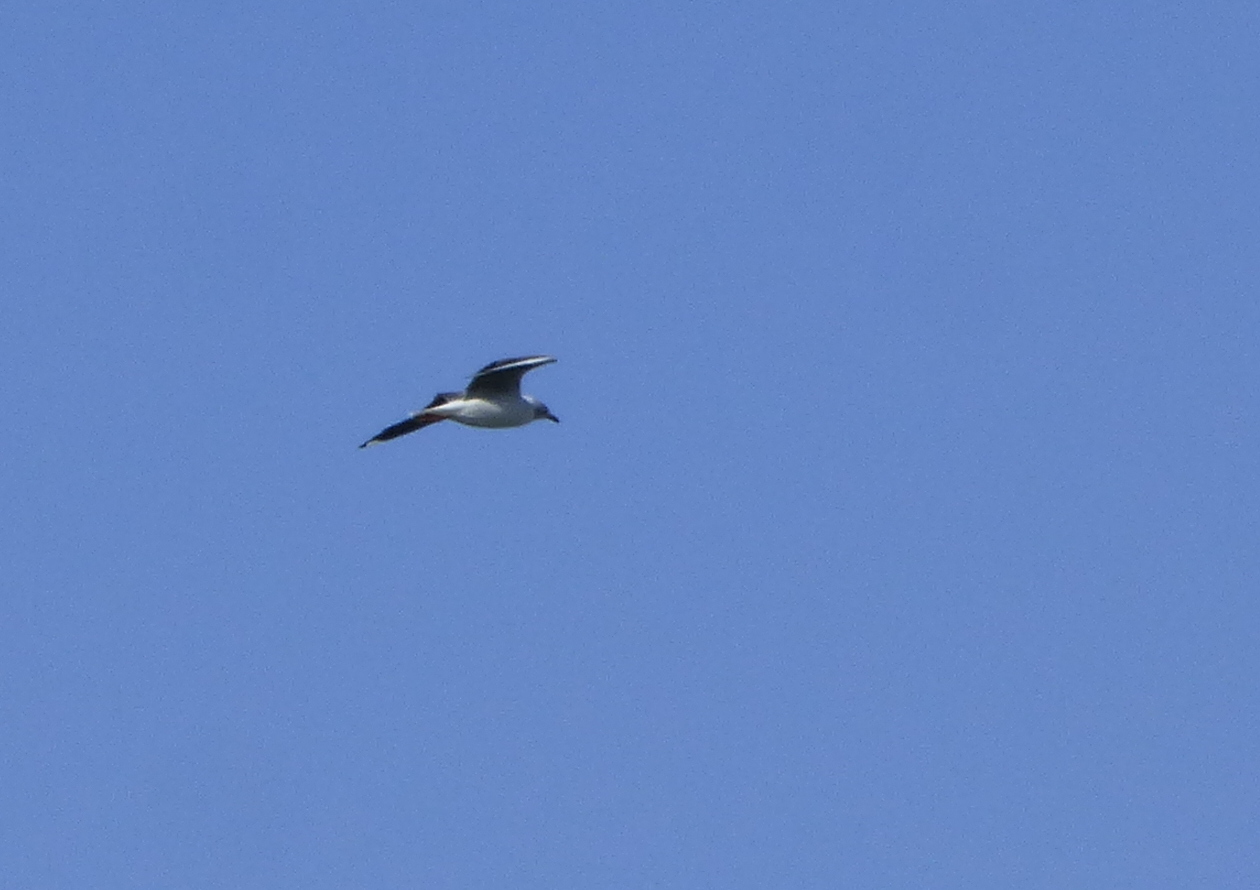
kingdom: Animalia
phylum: Chordata
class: Aves
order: Charadriiformes
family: Laridae
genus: Chroicocephalus
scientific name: Chroicocephalus cirrocephalus
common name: Grey-headed gull
